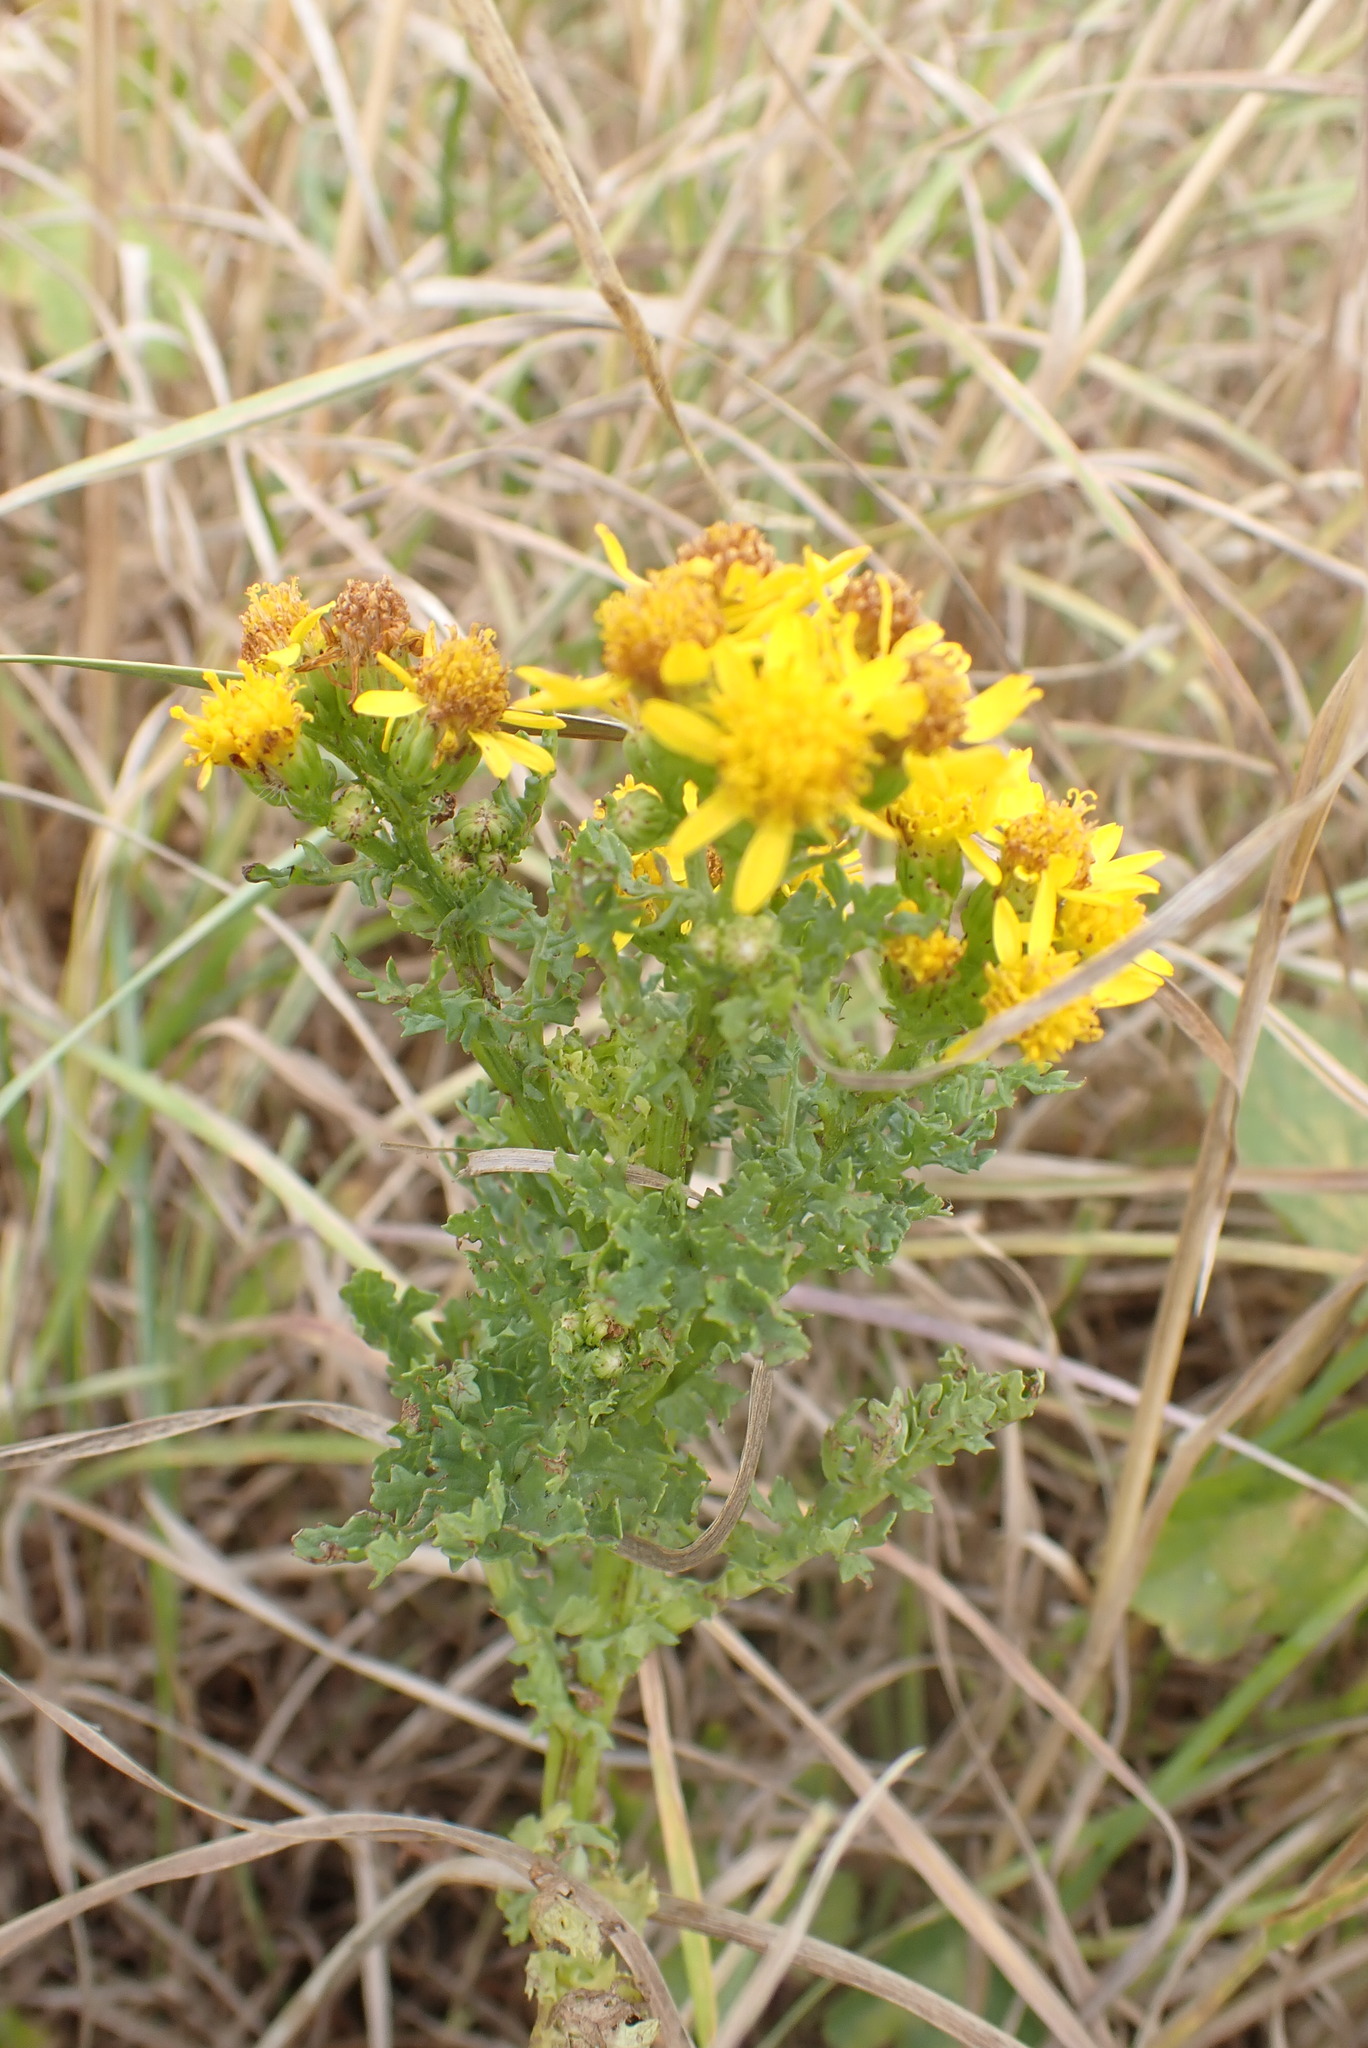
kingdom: Plantae
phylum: Tracheophyta
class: Magnoliopsida
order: Asterales
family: Asteraceae
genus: Jacobaea
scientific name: Jacobaea vulgaris
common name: Stinking willie
